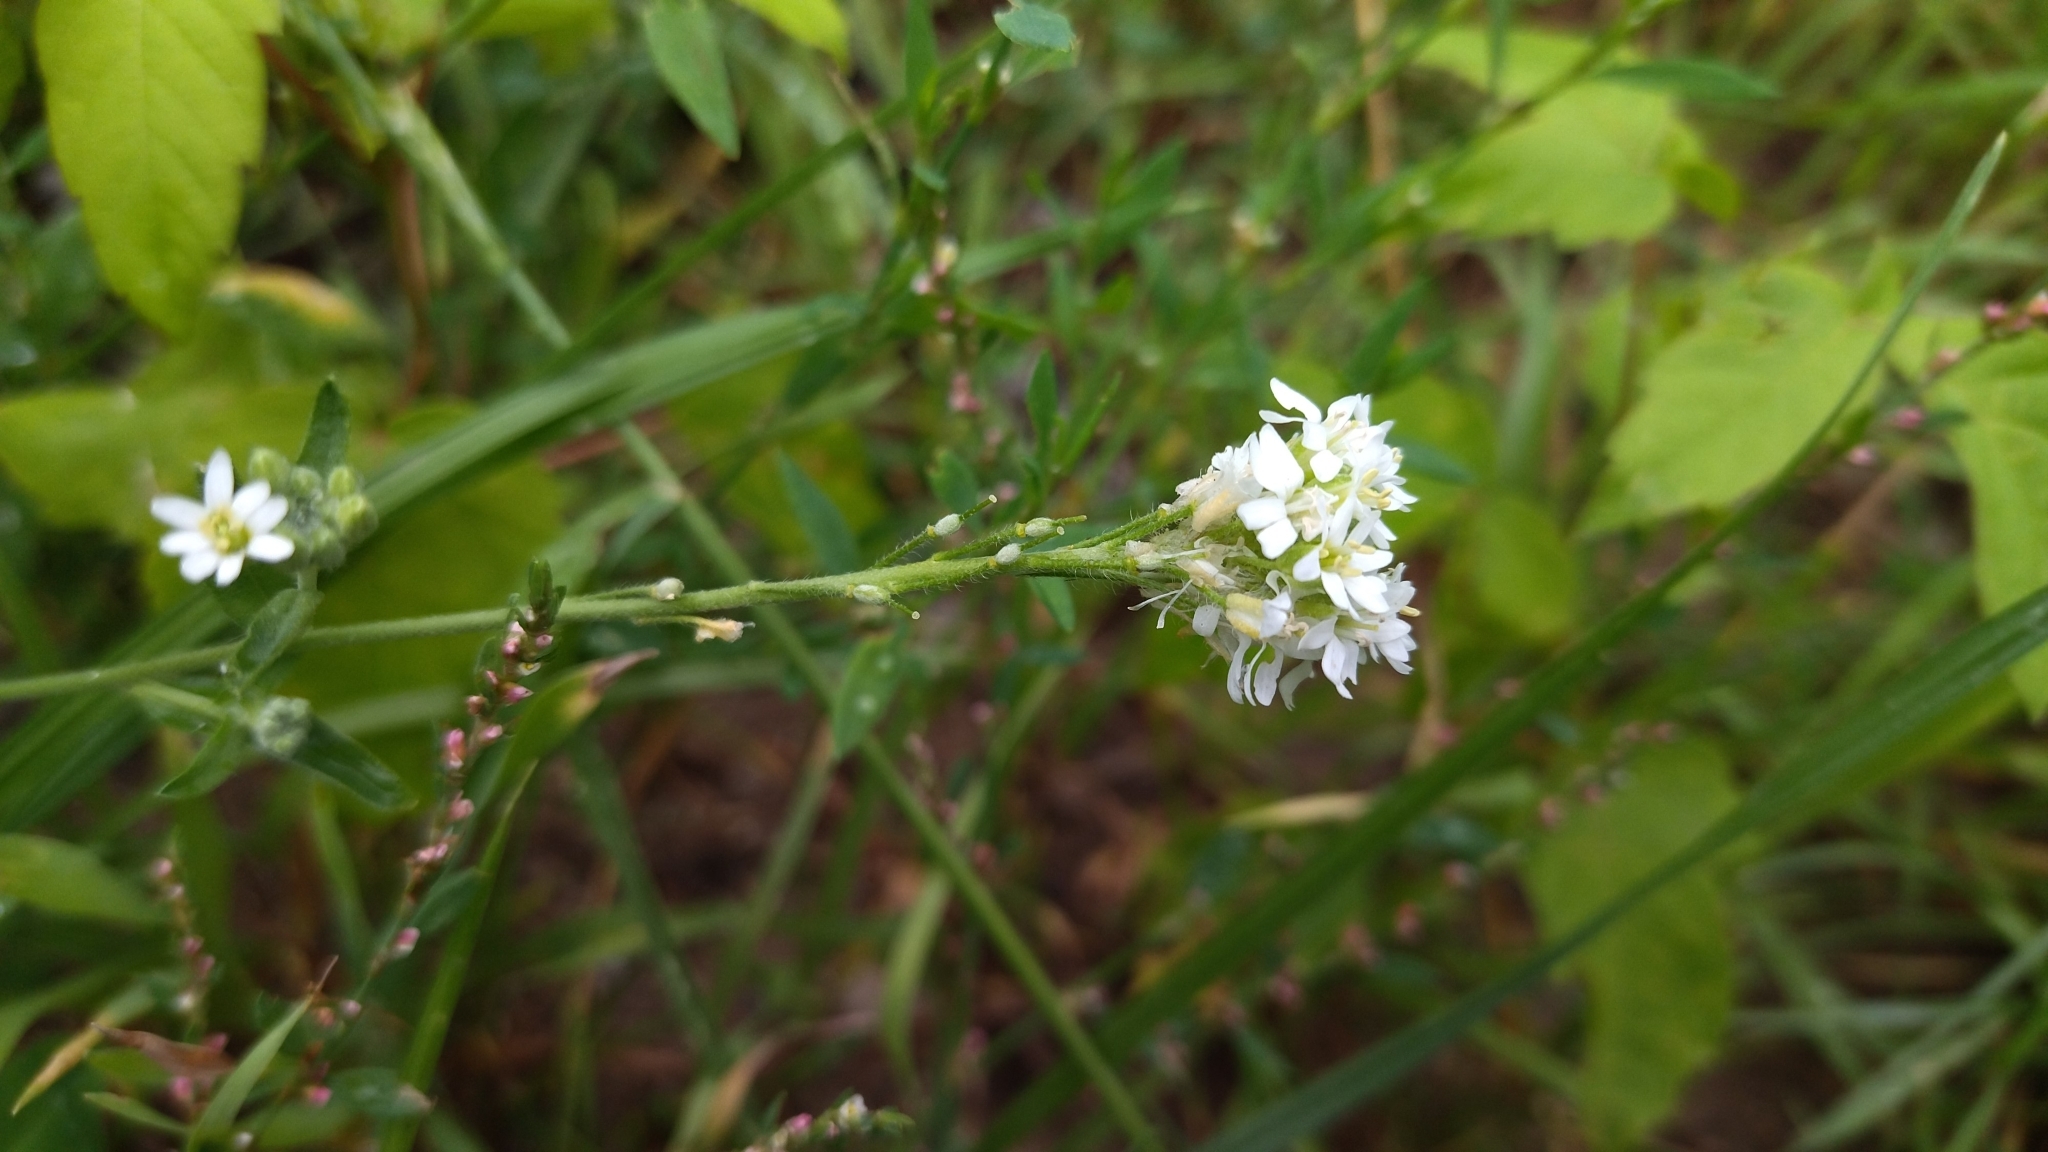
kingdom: Plantae
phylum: Tracheophyta
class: Magnoliopsida
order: Brassicales
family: Brassicaceae
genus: Berteroa
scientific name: Berteroa incana
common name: Hoary alison
